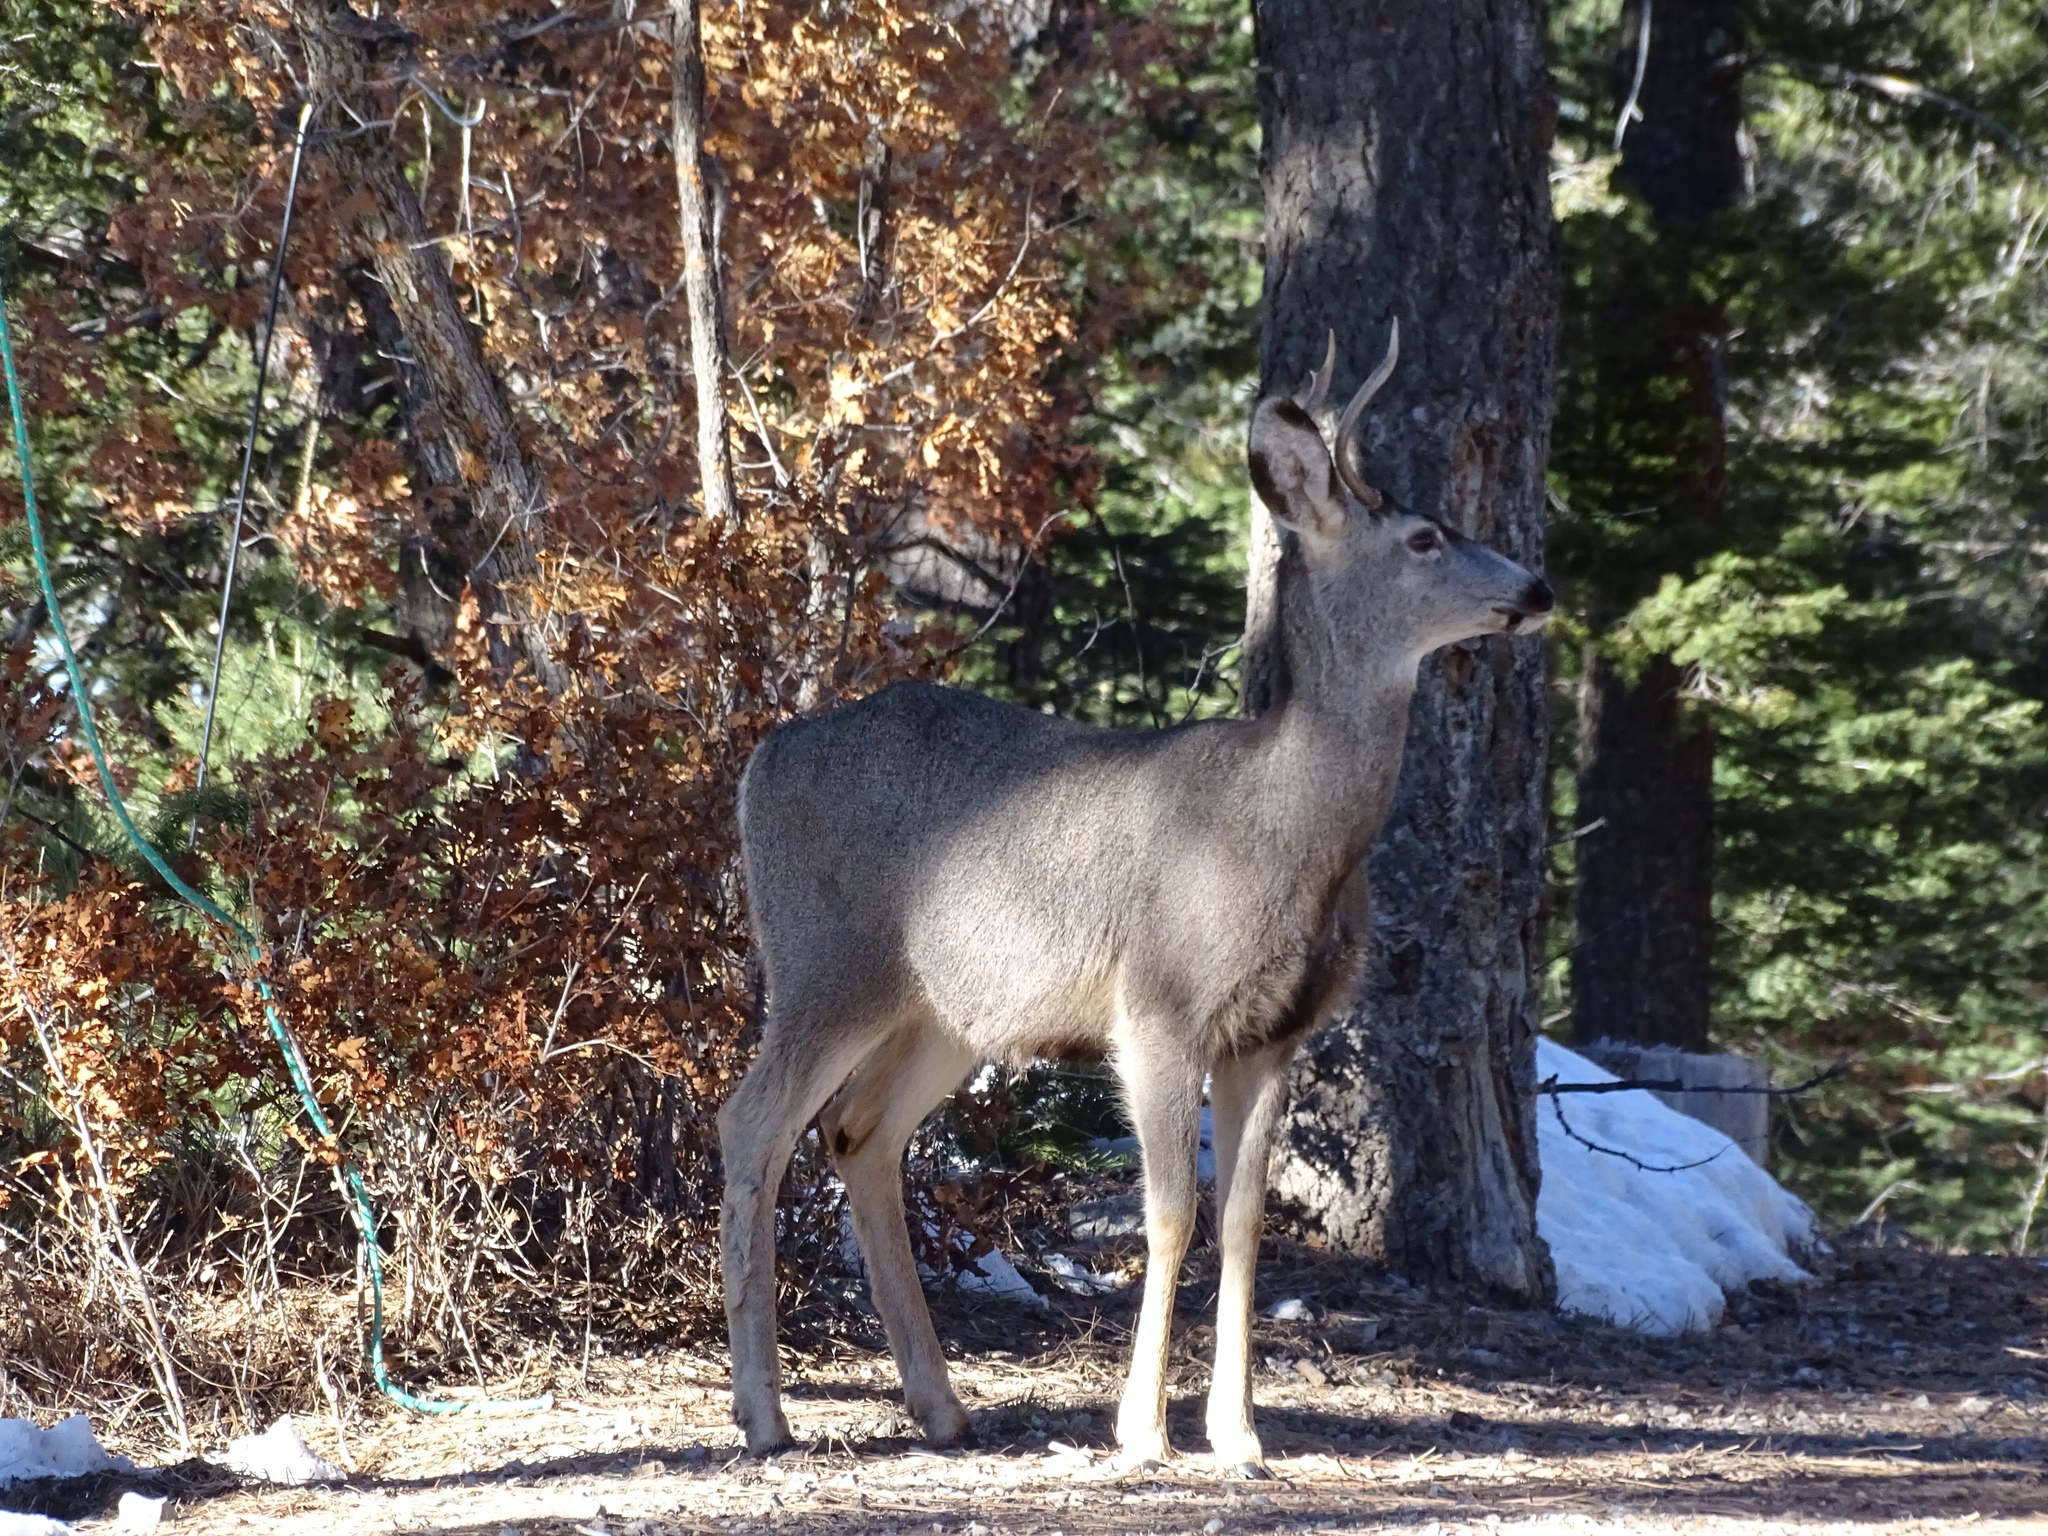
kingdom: Animalia
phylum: Chordata
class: Mammalia
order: Artiodactyla
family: Cervidae
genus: Odocoileus
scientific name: Odocoileus hemionus
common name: Mule deer
